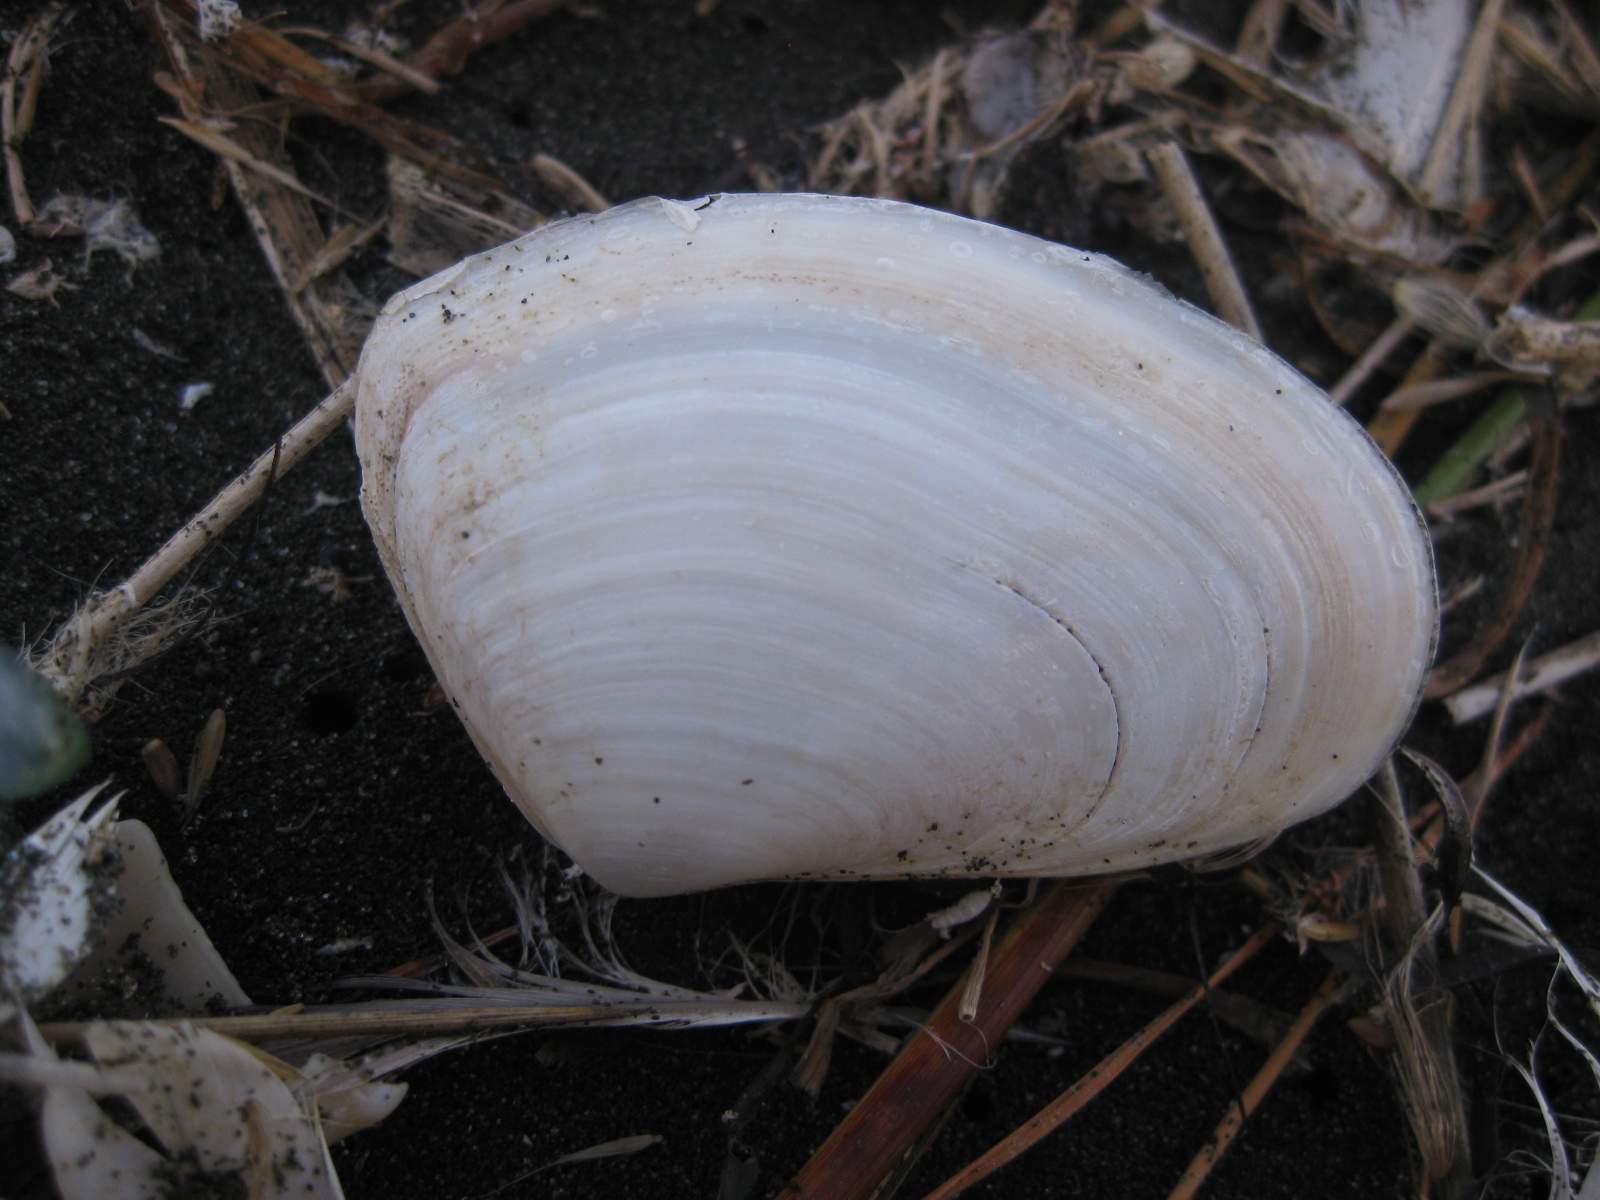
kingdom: Animalia
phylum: Mollusca
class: Bivalvia
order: Venerida
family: Mesodesmatidae
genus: Paphies
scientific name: Paphies ventricosa
